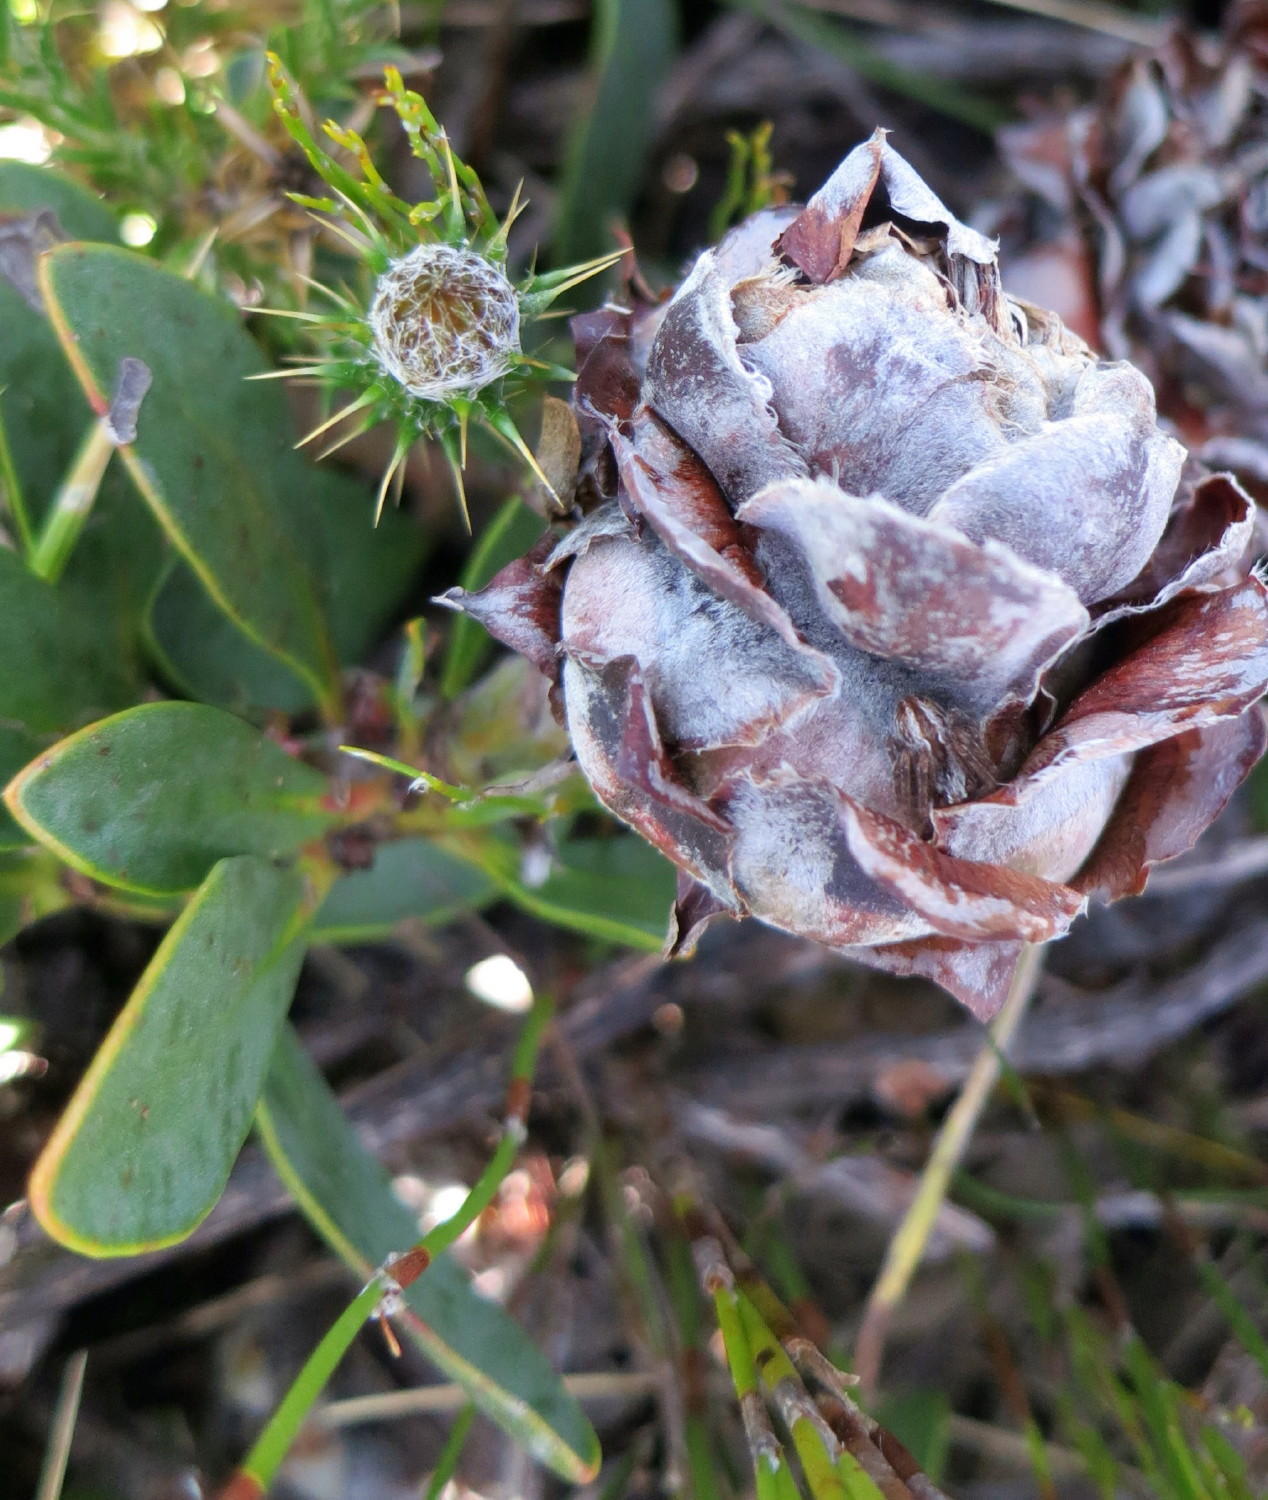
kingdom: Plantae
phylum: Tracheophyta
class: Magnoliopsida
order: Proteales
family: Proteaceae
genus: Protea
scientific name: Protea venusta
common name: Cascade sugarbush
